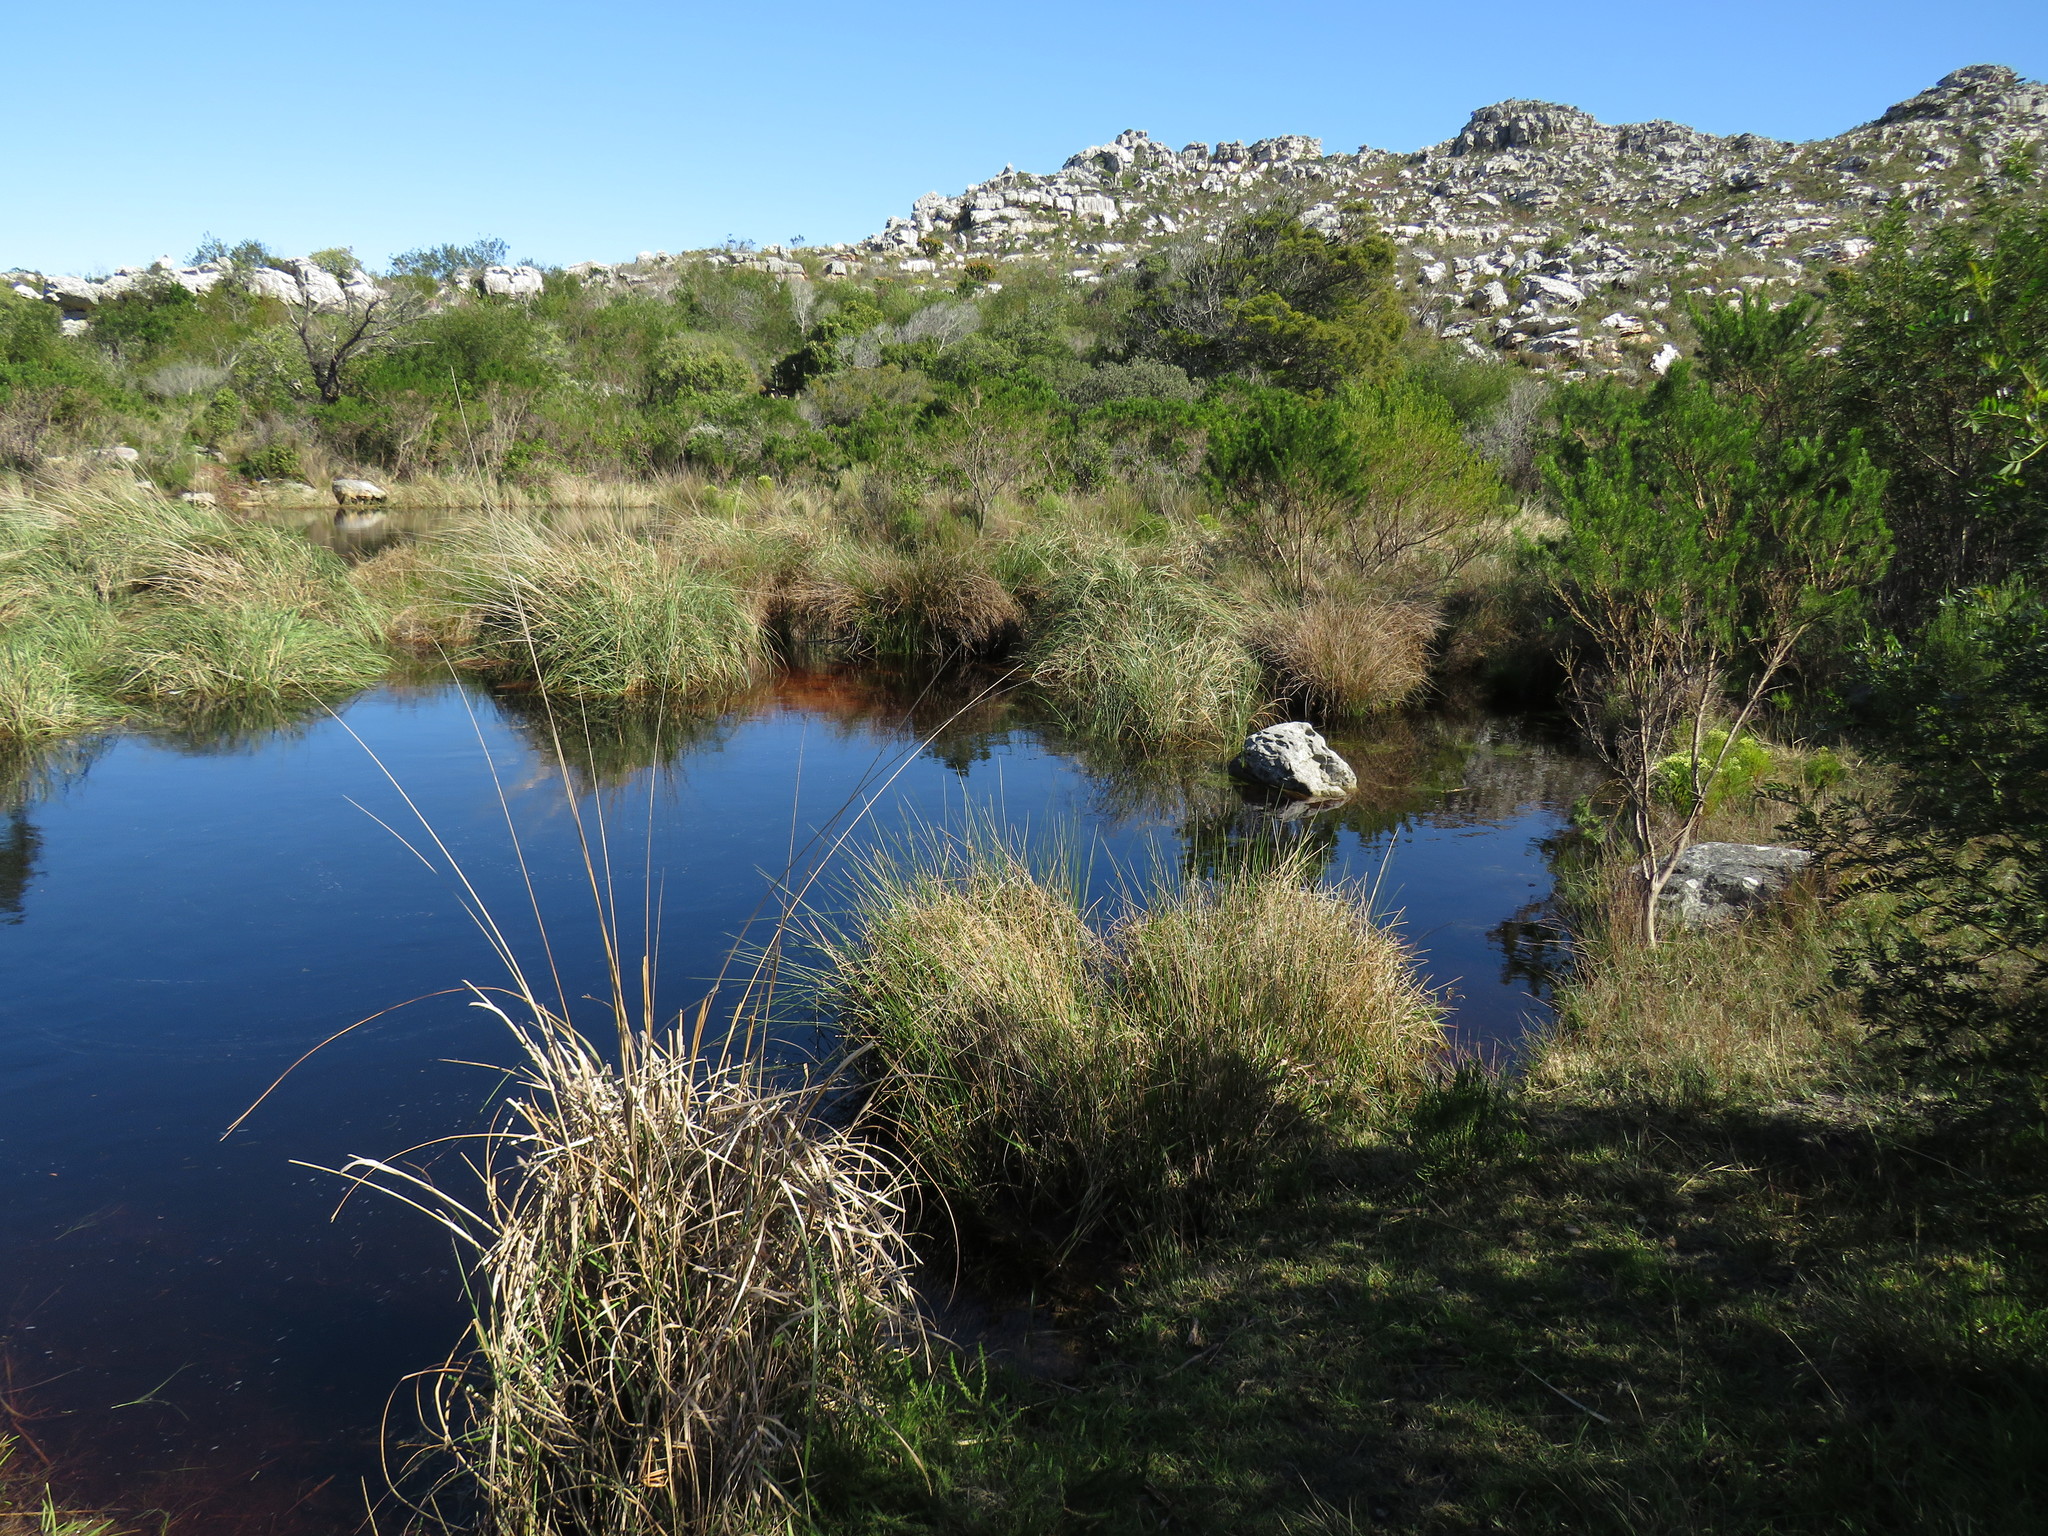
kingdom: Plantae
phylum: Tracheophyta
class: Liliopsida
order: Poales
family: Poaceae
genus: Capeochloa
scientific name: Capeochloa cincta
